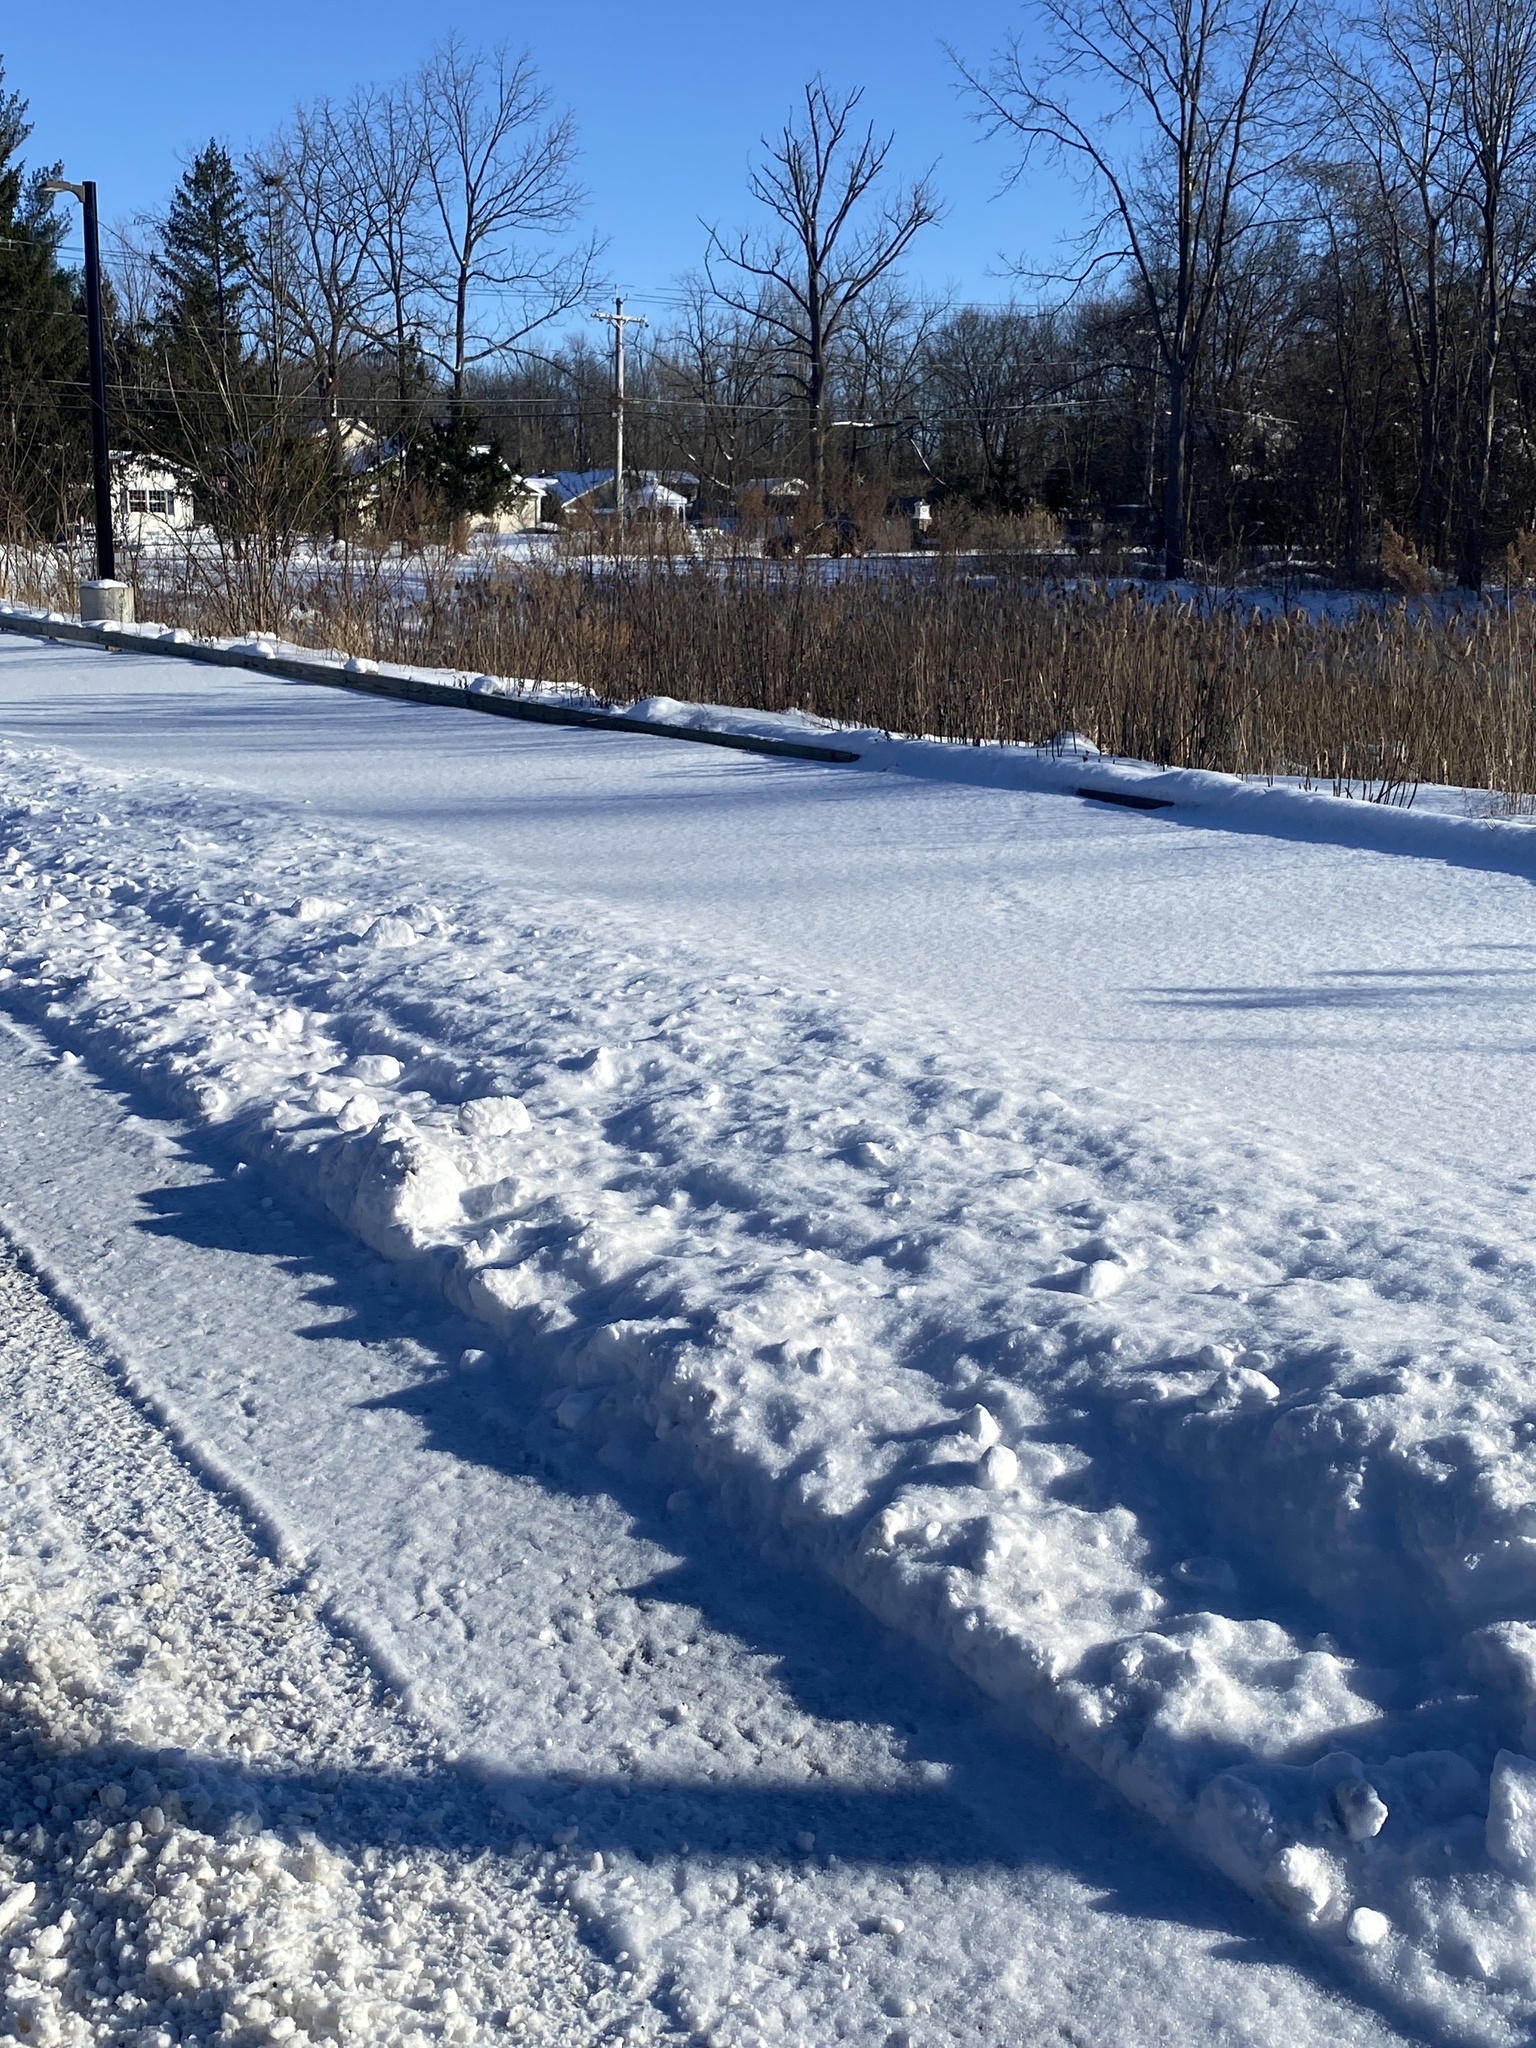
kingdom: Plantae
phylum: Tracheophyta
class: Magnoliopsida
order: Lamiales
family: Lamiaceae
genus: Prunella
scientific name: Prunella vulgaris
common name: Heal-all
